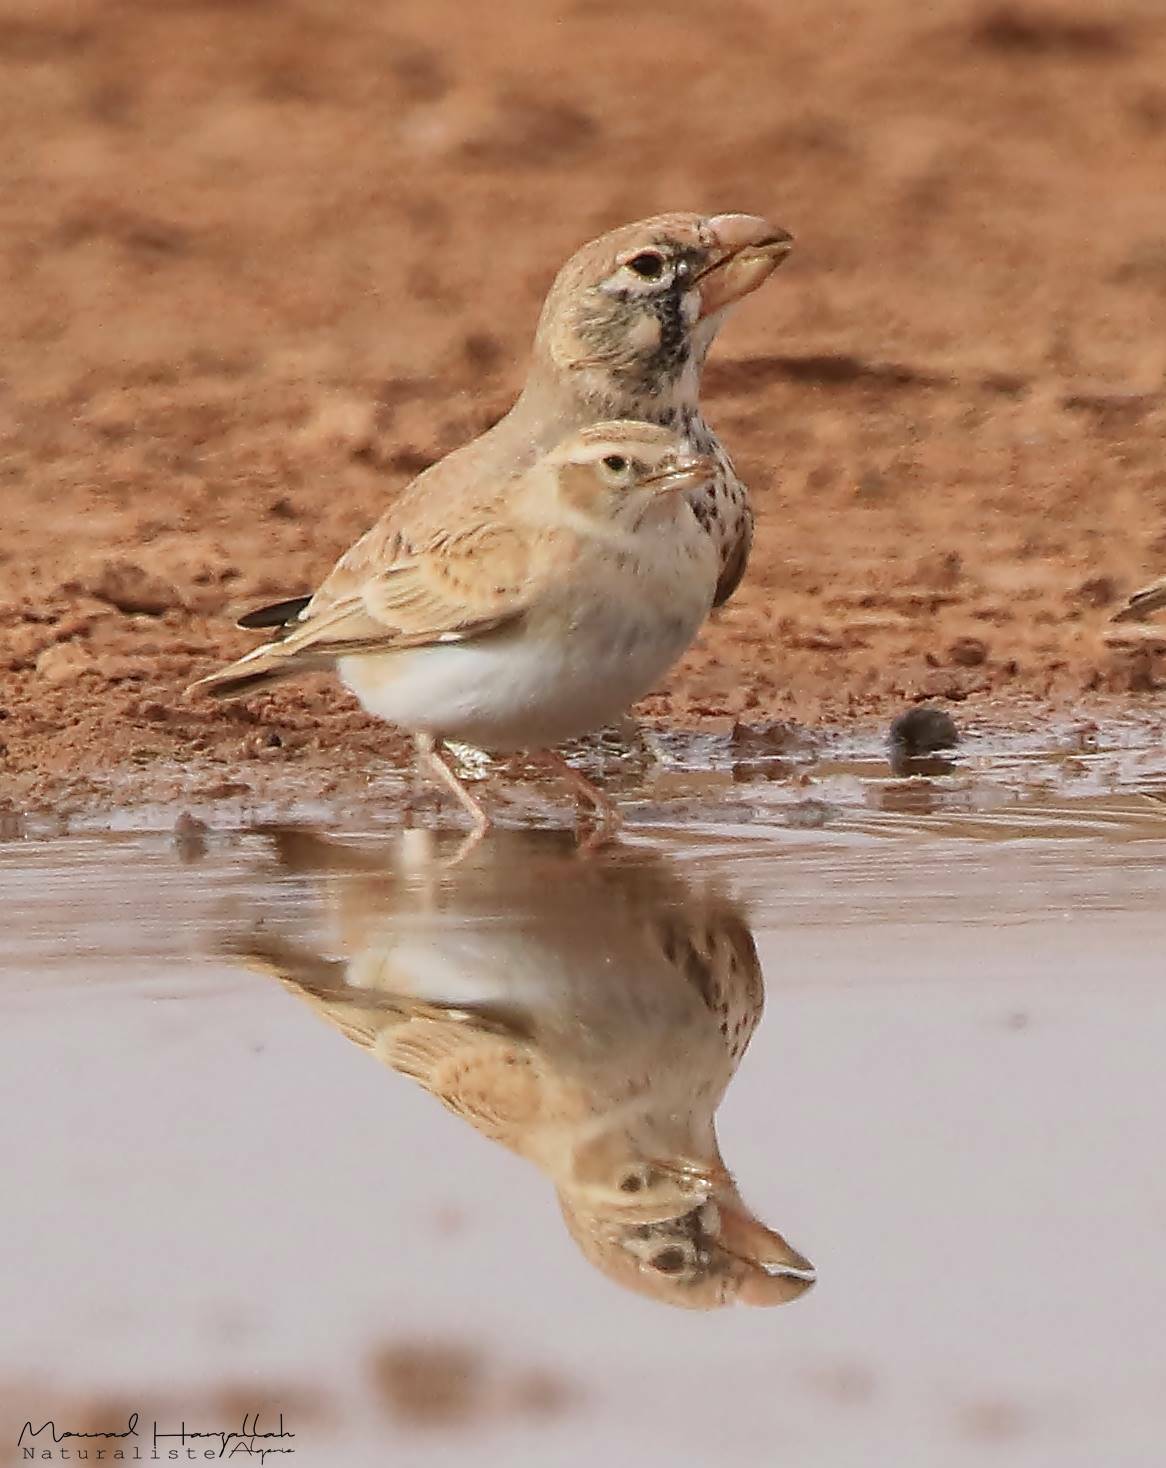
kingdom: Animalia
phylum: Chordata
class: Aves
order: Passeriformes
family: Alaudidae
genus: Calandrella
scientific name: Calandrella rufescens
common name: Lesser short-toed lark
